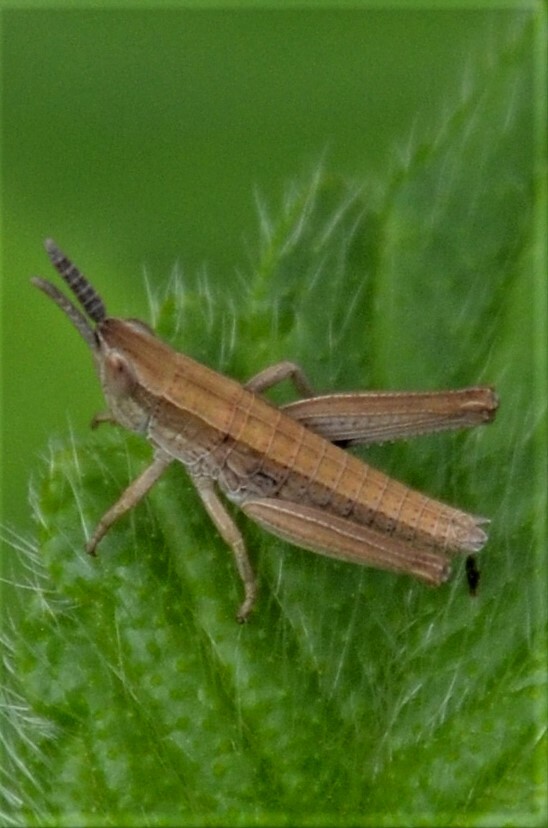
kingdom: Animalia
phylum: Arthropoda
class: Insecta
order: Orthoptera
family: Acrididae
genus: Euthystira
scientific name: Euthystira brachyptera
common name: Small gold grasshopper
